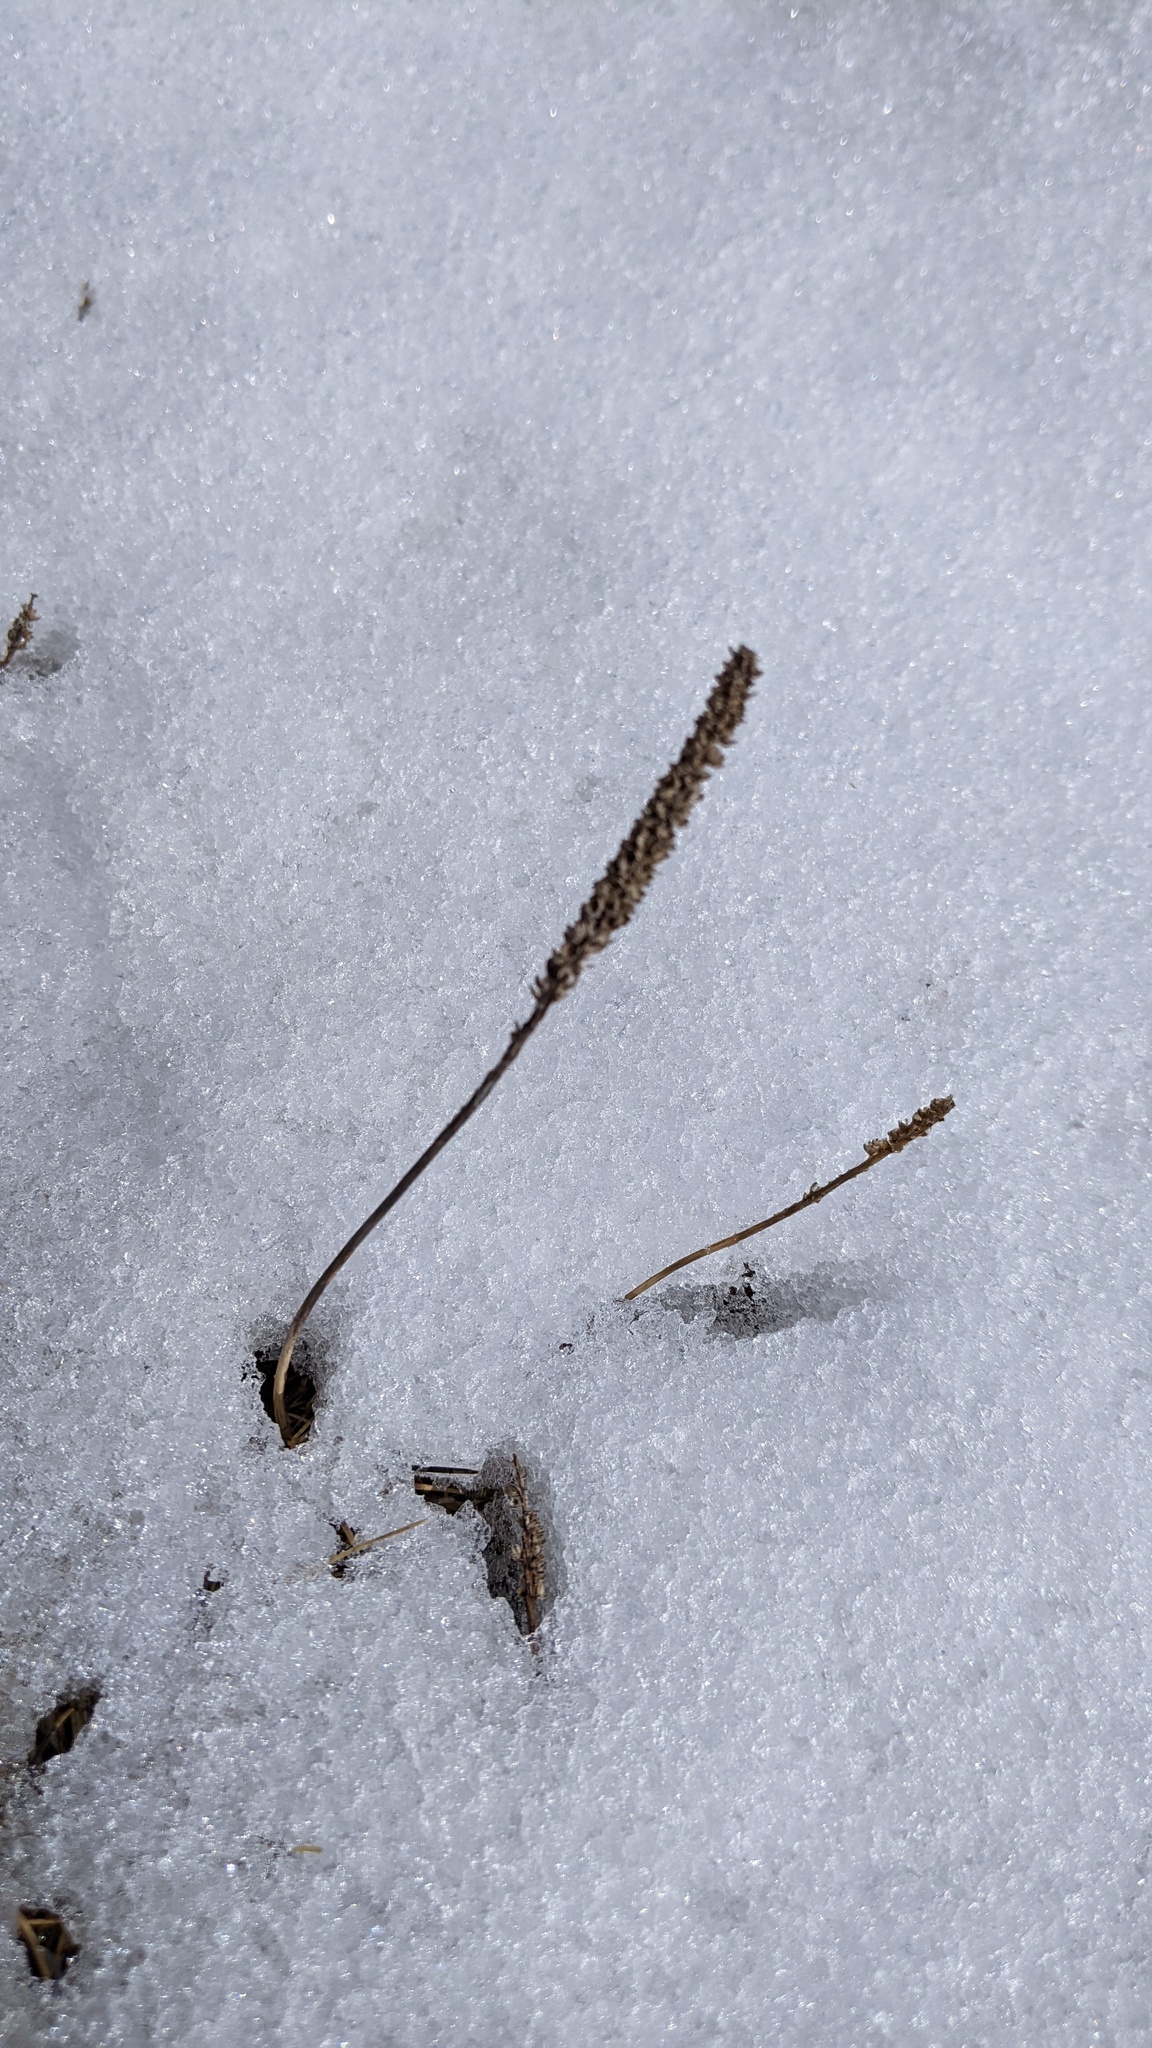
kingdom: Plantae
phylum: Tracheophyta
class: Magnoliopsida
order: Lamiales
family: Plantaginaceae
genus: Plantago
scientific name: Plantago major
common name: Common plantain
